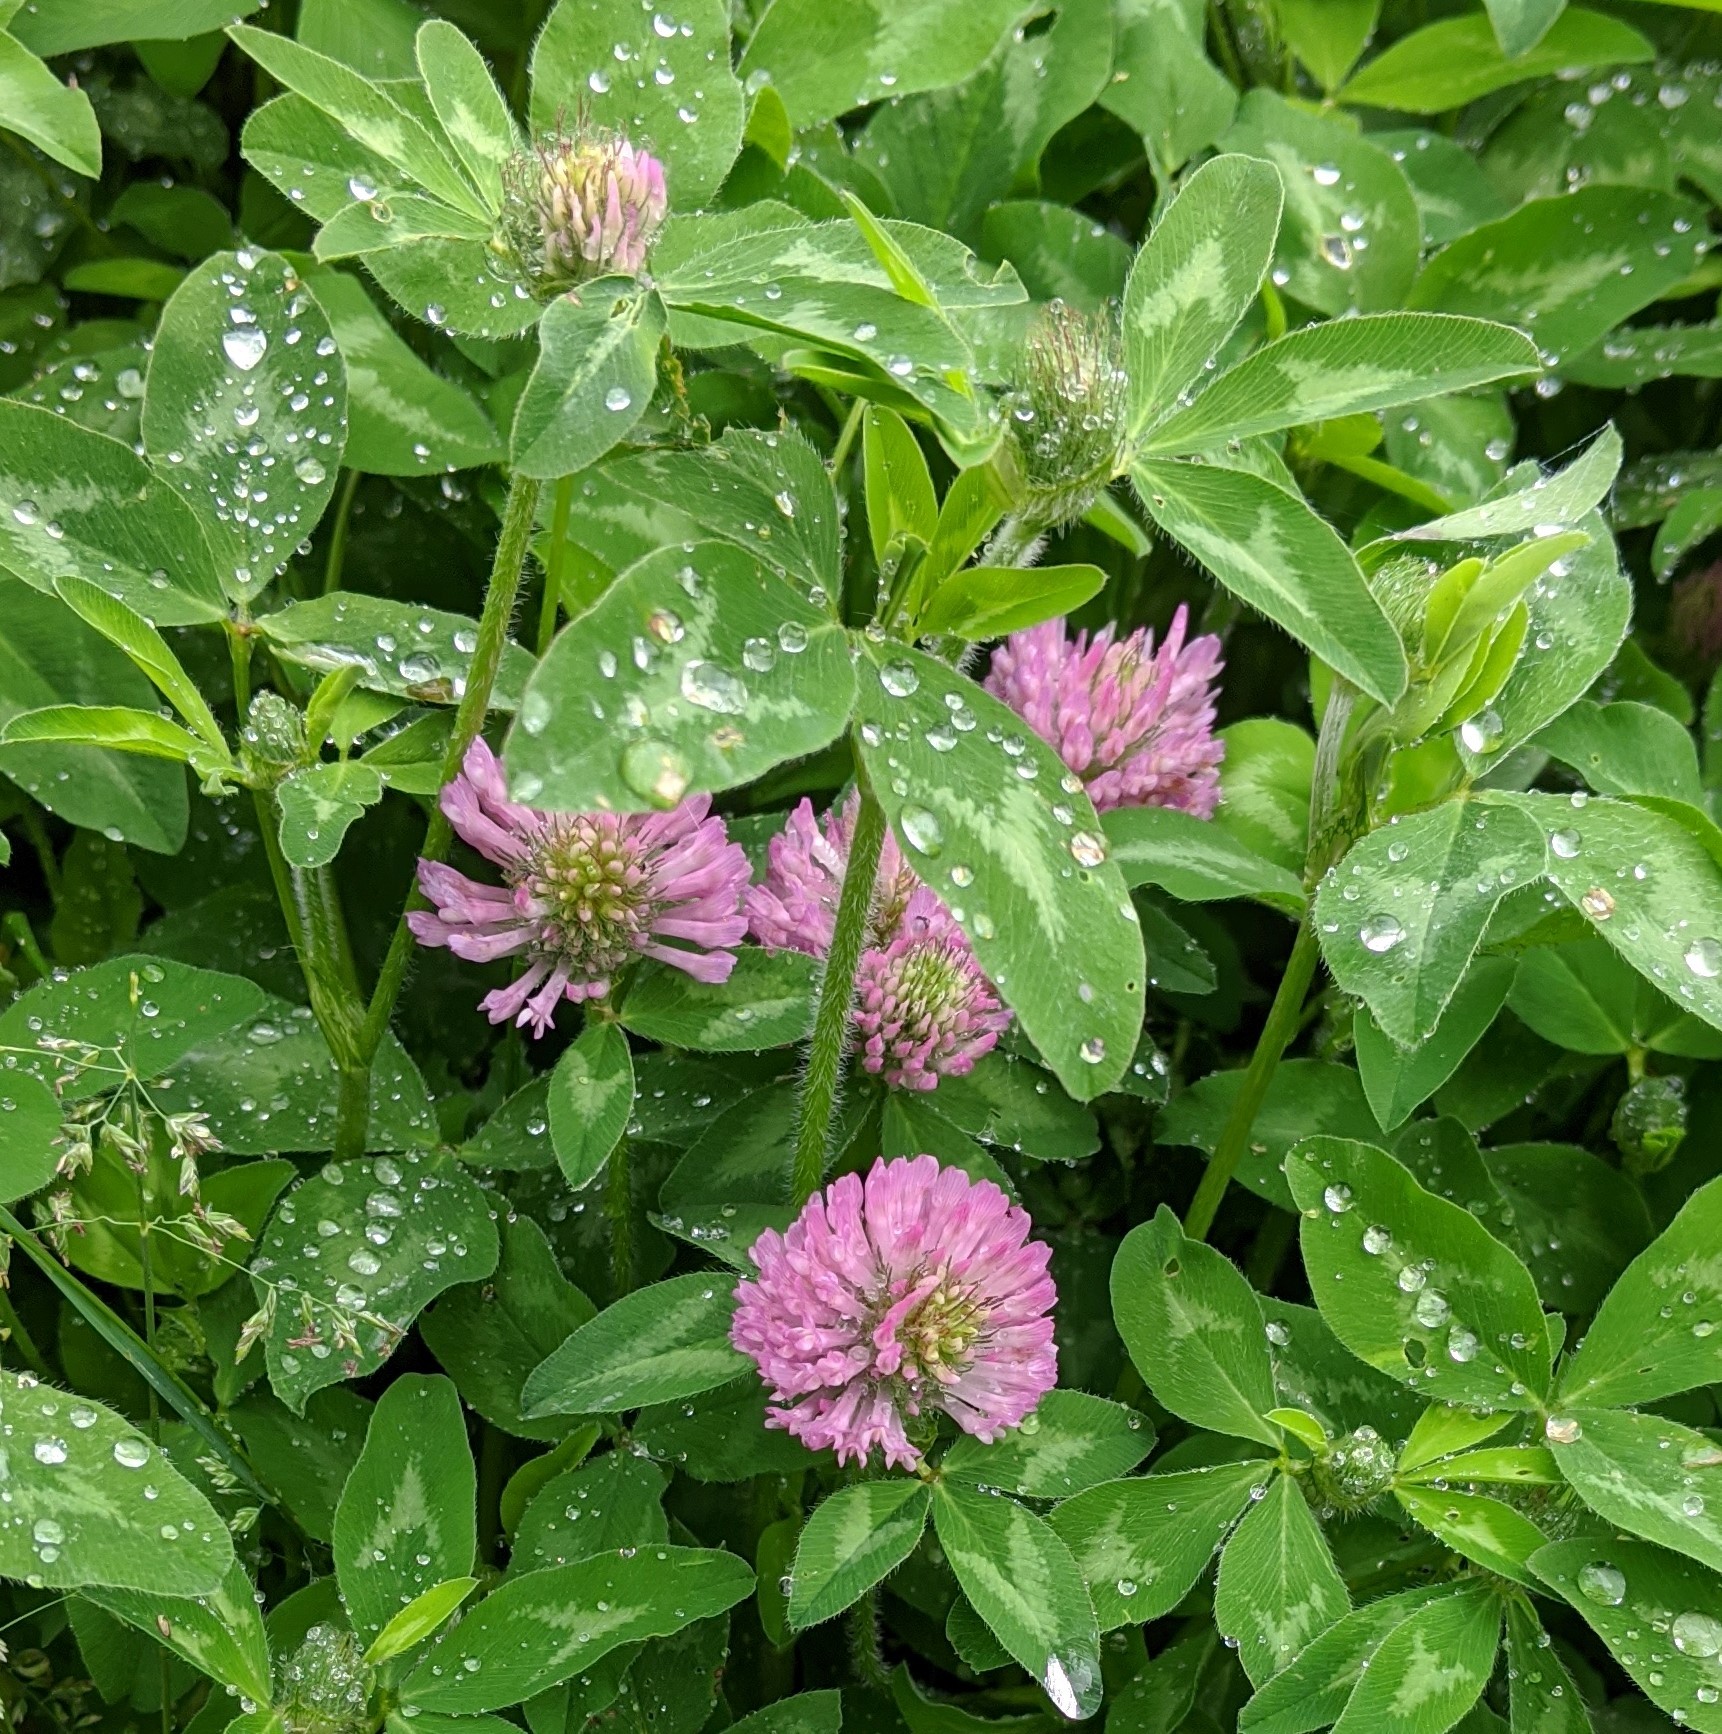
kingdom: Plantae
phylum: Tracheophyta
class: Magnoliopsida
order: Fabales
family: Fabaceae
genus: Trifolium
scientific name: Trifolium pratense
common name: Red clover
